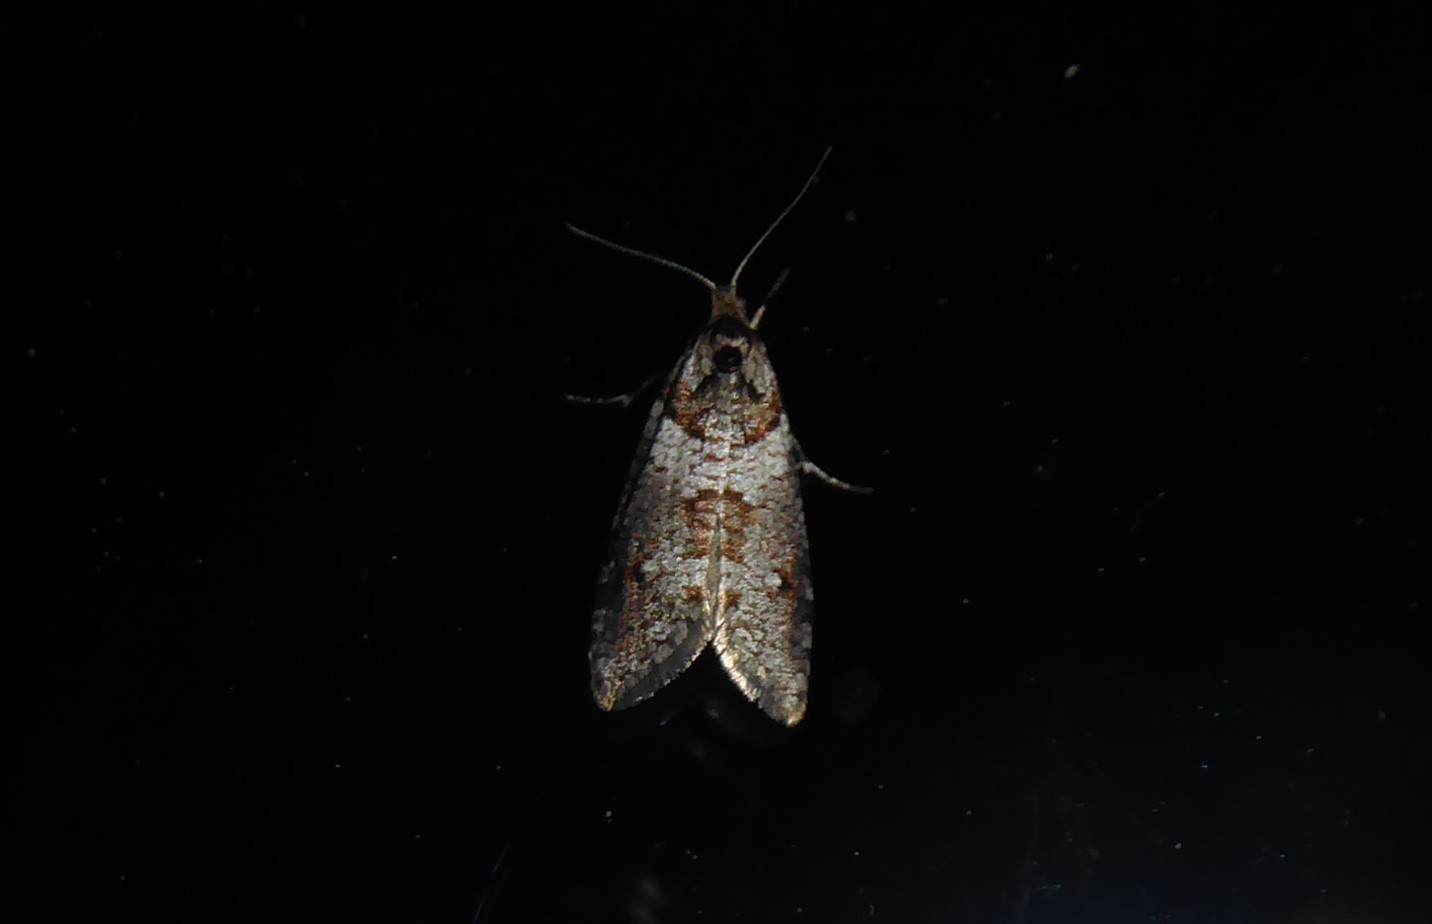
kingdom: Animalia
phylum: Arthropoda
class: Insecta
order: Lepidoptera
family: Psychidae
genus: Lepidoscia
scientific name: Lepidoscia heliochares
